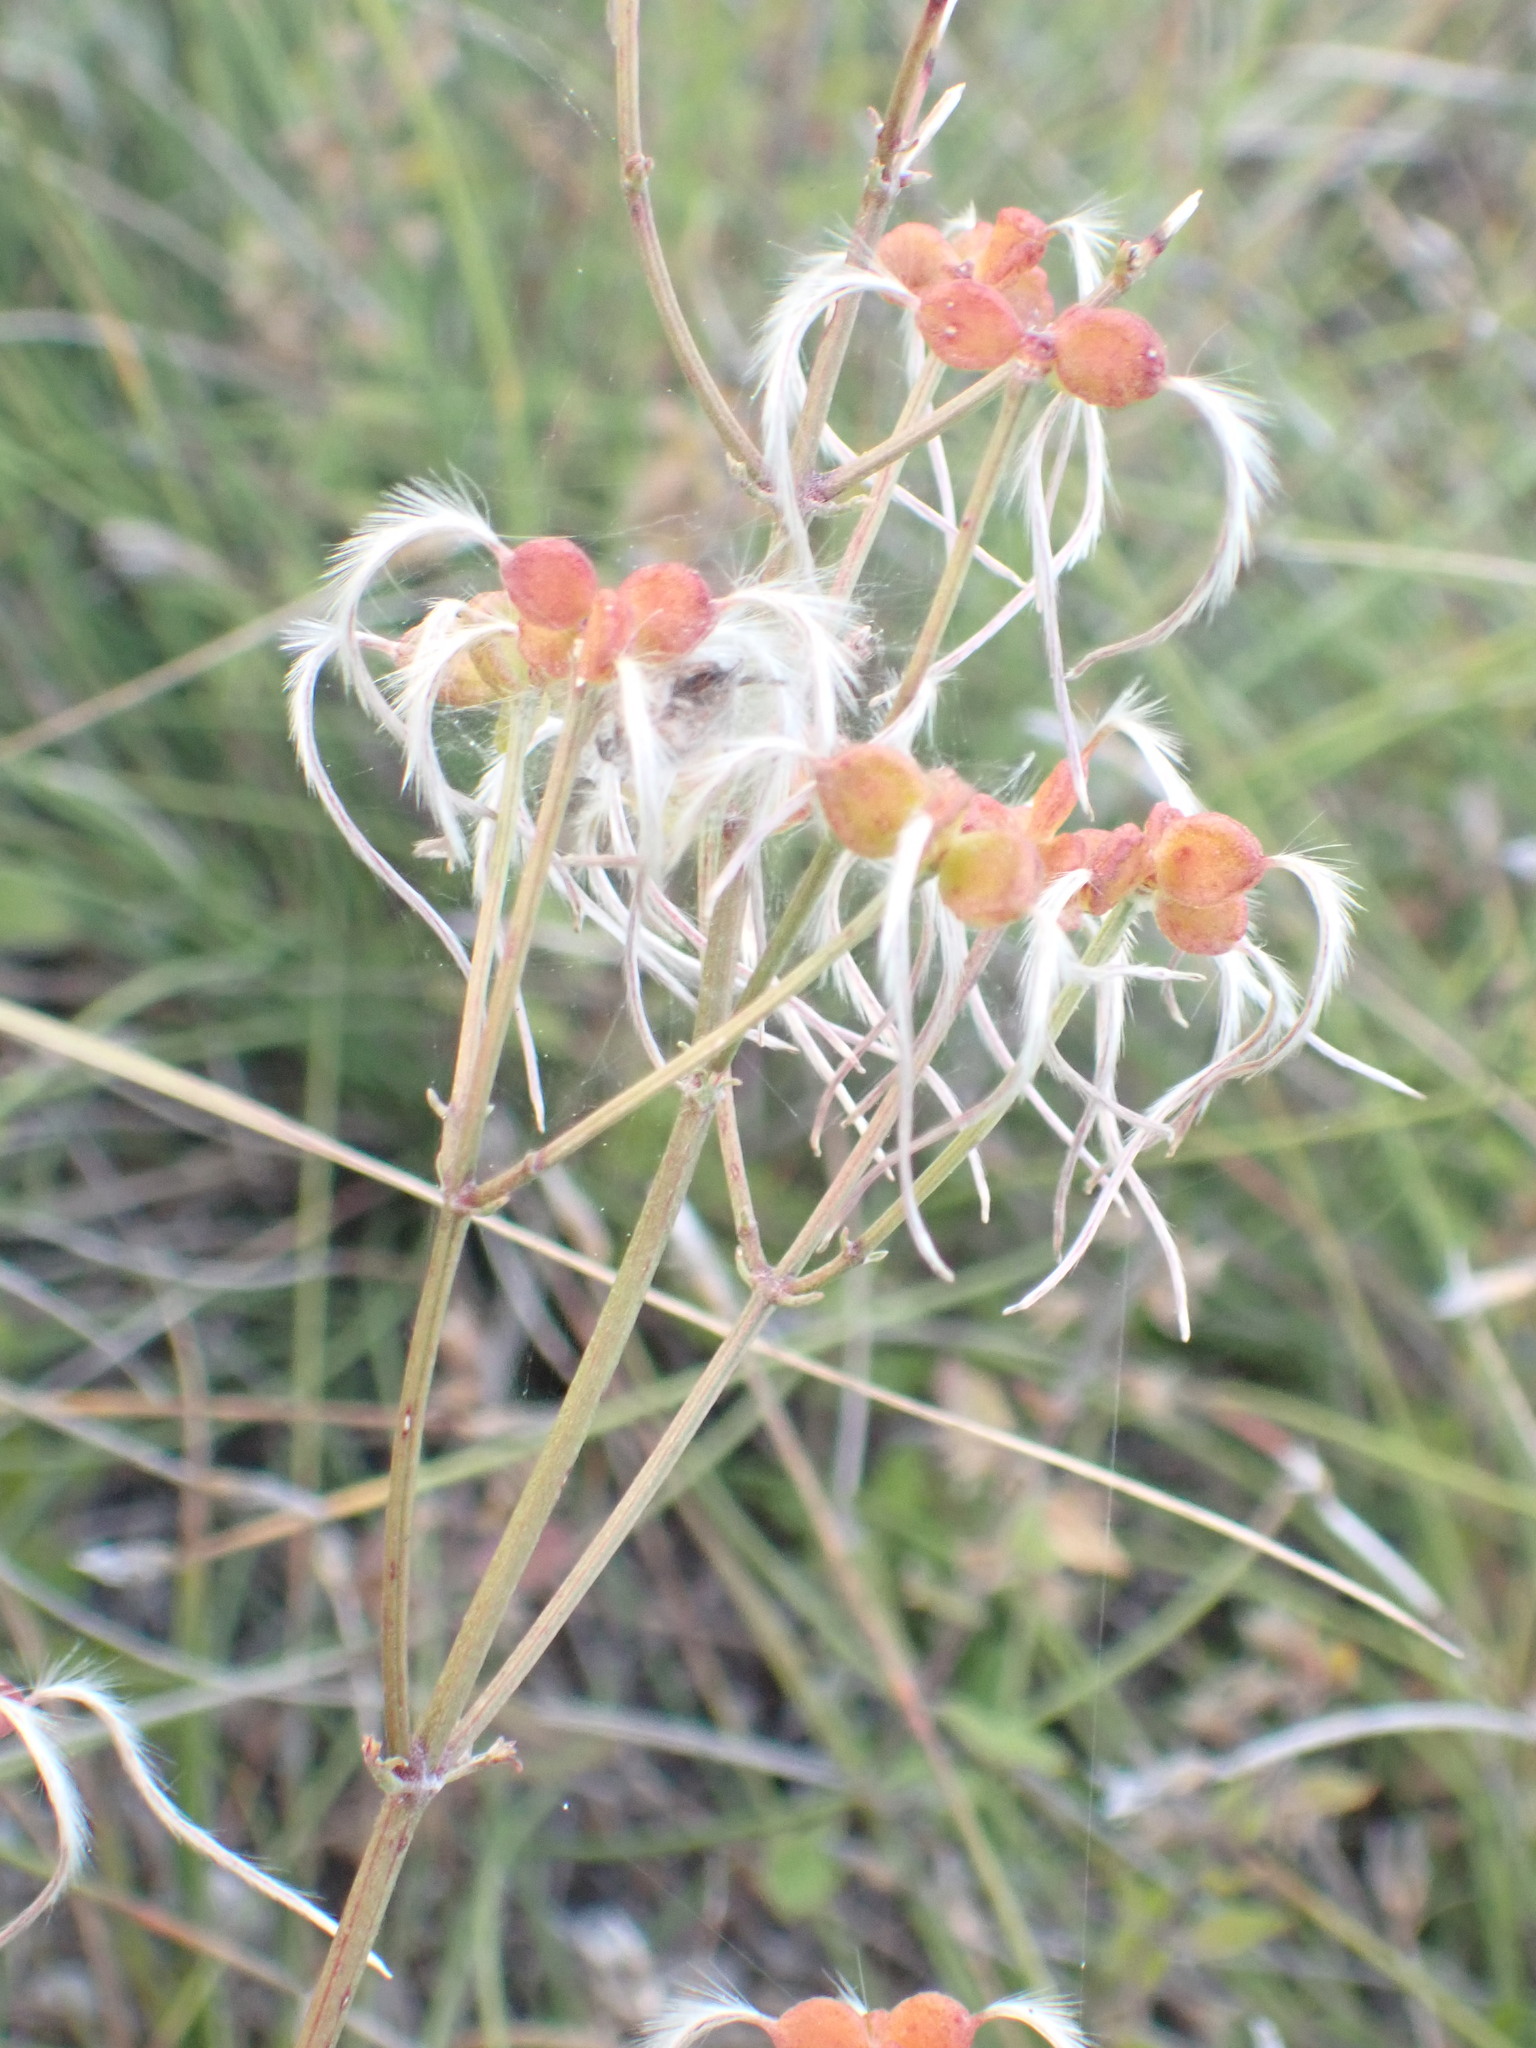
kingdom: Plantae
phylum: Tracheophyta
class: Magnoliopsida
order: Ranunculales
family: Ranunculaceae
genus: Clematis
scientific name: Clematis flammula
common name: Virgin's-bower
